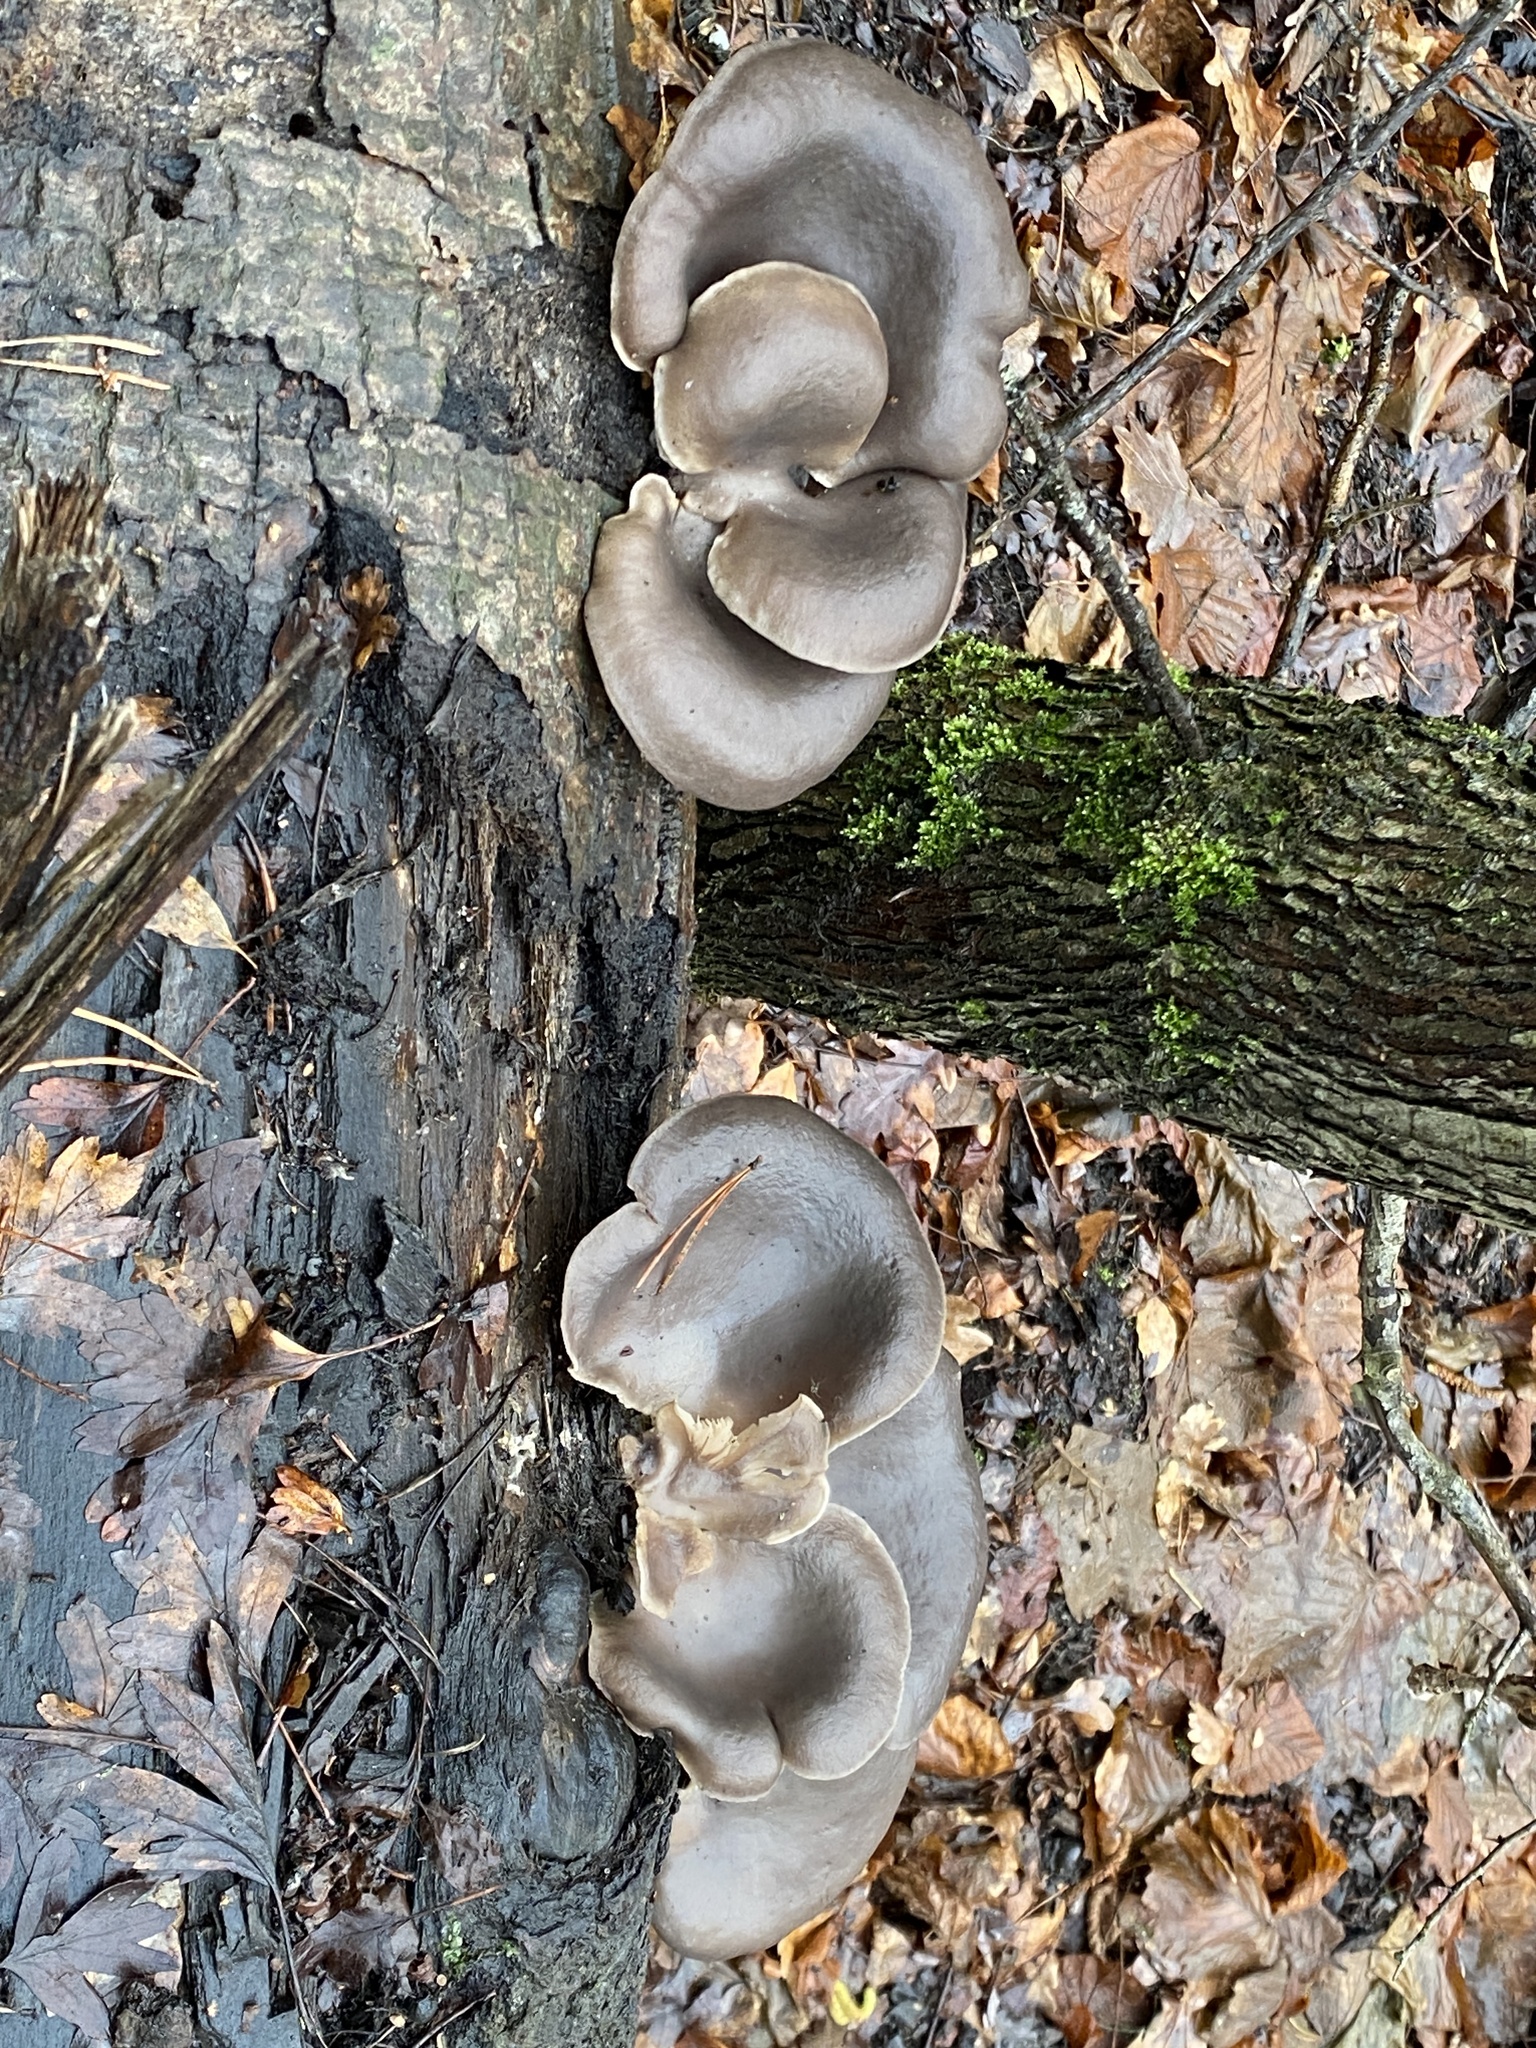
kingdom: Fungi
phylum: Basidiomycota
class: Agaricomycetes
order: Agaricales
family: Pleurotaceae
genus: Pleurotus
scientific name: Pleurotus ostreatus
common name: Oyster mushroom
